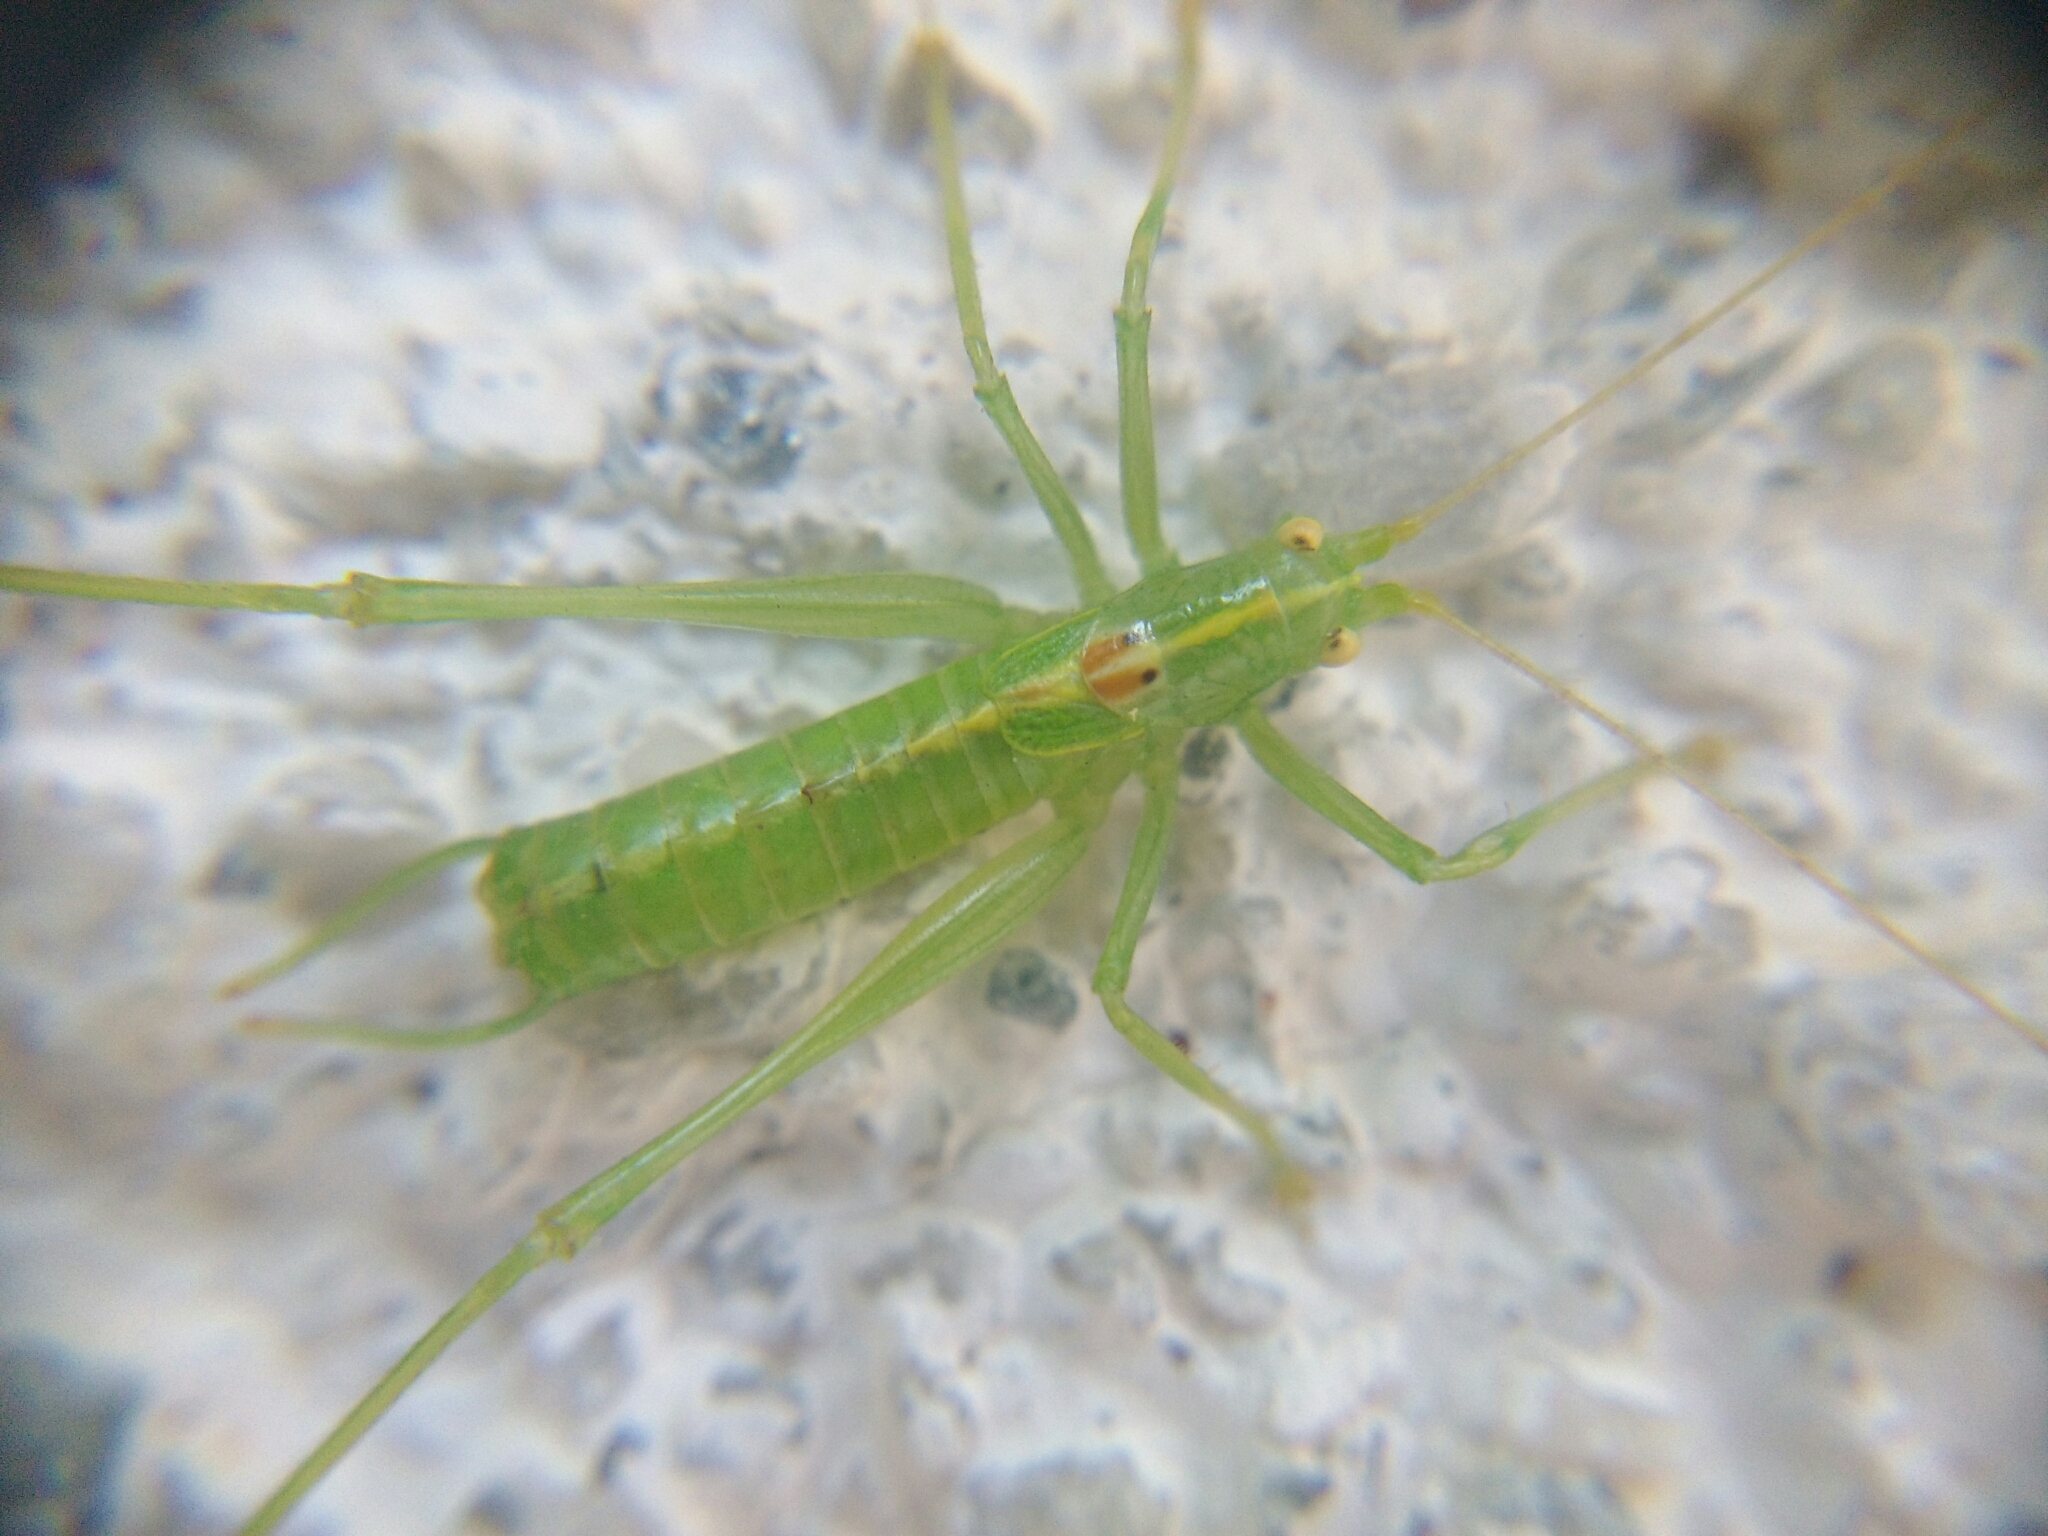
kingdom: Animalia
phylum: Arthropoda
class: Insecta
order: Orthoptera
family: Tettigoniidae
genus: Meconema
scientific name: Meconema meridionale
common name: Southern oak bush-cricket
